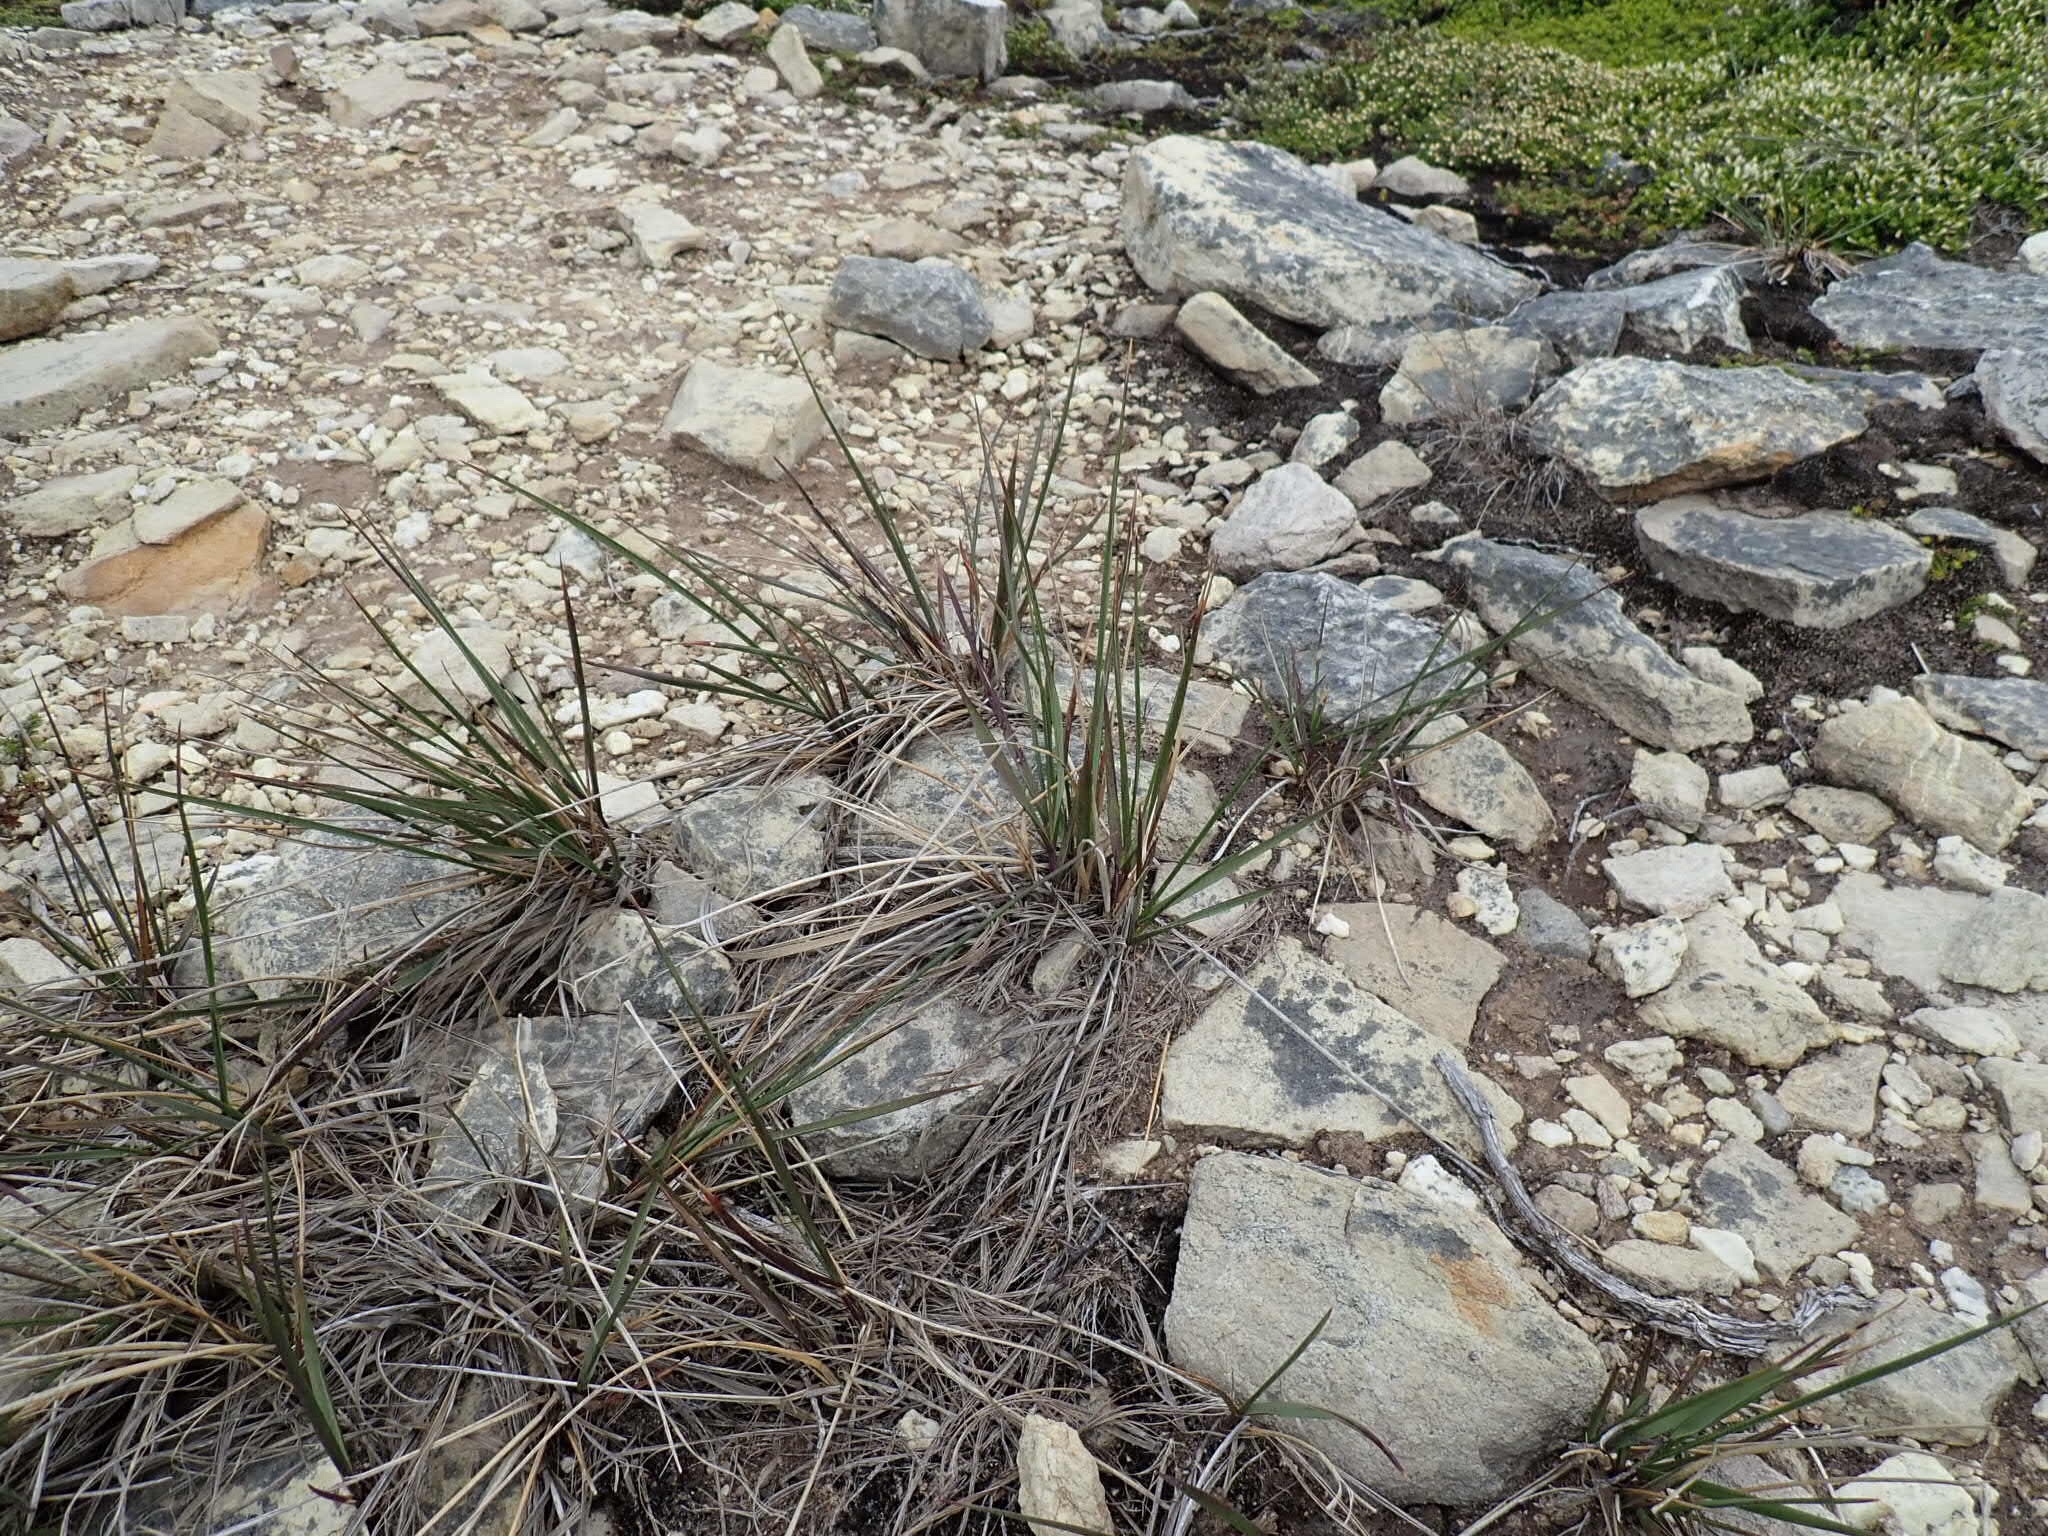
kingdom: Plantae
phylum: Tracheophyta
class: Liliopsida
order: Poales
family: Poaceae
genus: Anthoxanthum
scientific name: Anthoxanthum redolens
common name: Sweet holy grass
